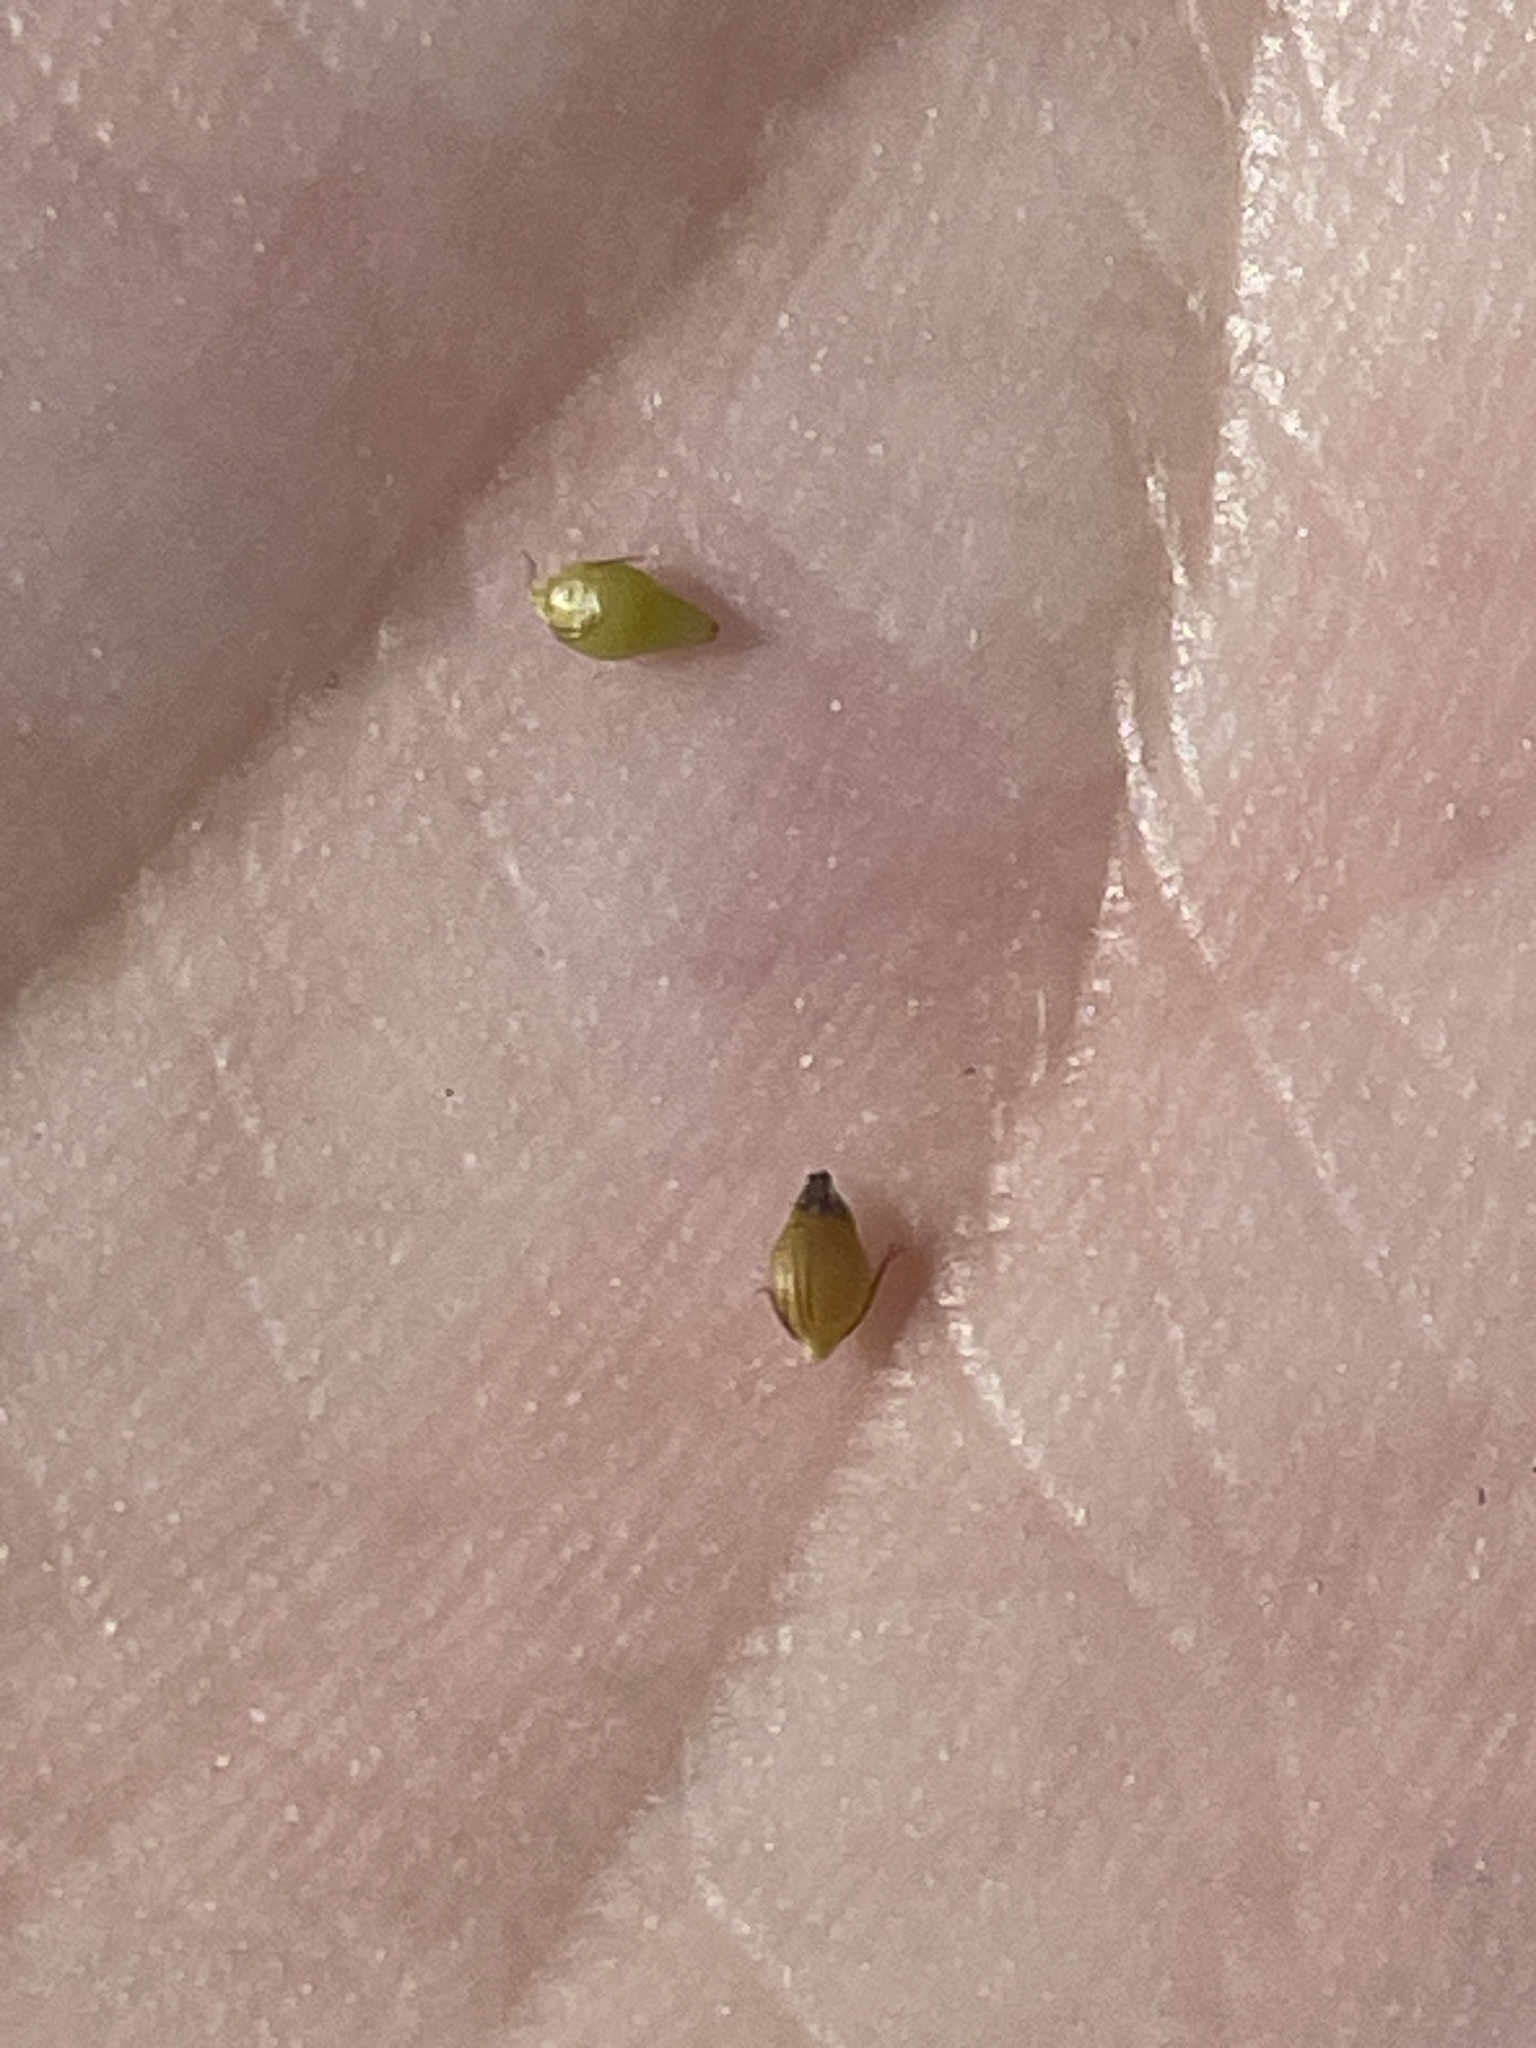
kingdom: Plantae
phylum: Tracheophyta
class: Liliopsida
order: Poales
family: Cyperaceae
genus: Rhynchospora
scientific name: Rhynchospora debilis
